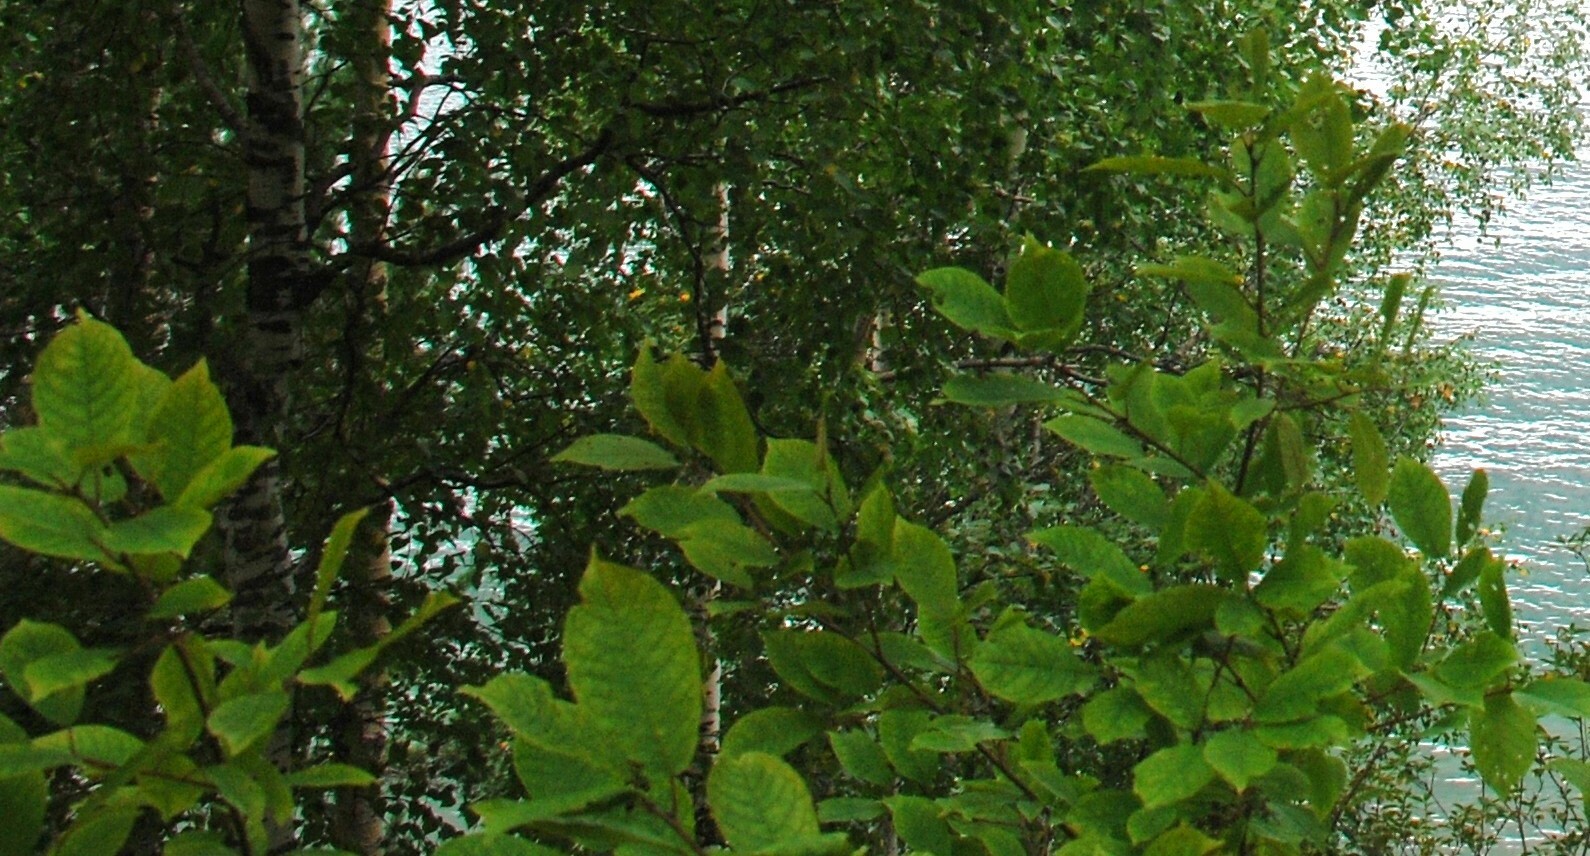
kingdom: Plantae
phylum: Tracheophyta
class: Magnoliopsida
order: Rosales
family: Rosaceae
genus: Prunus
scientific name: Prunus padus
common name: Bird cherry
